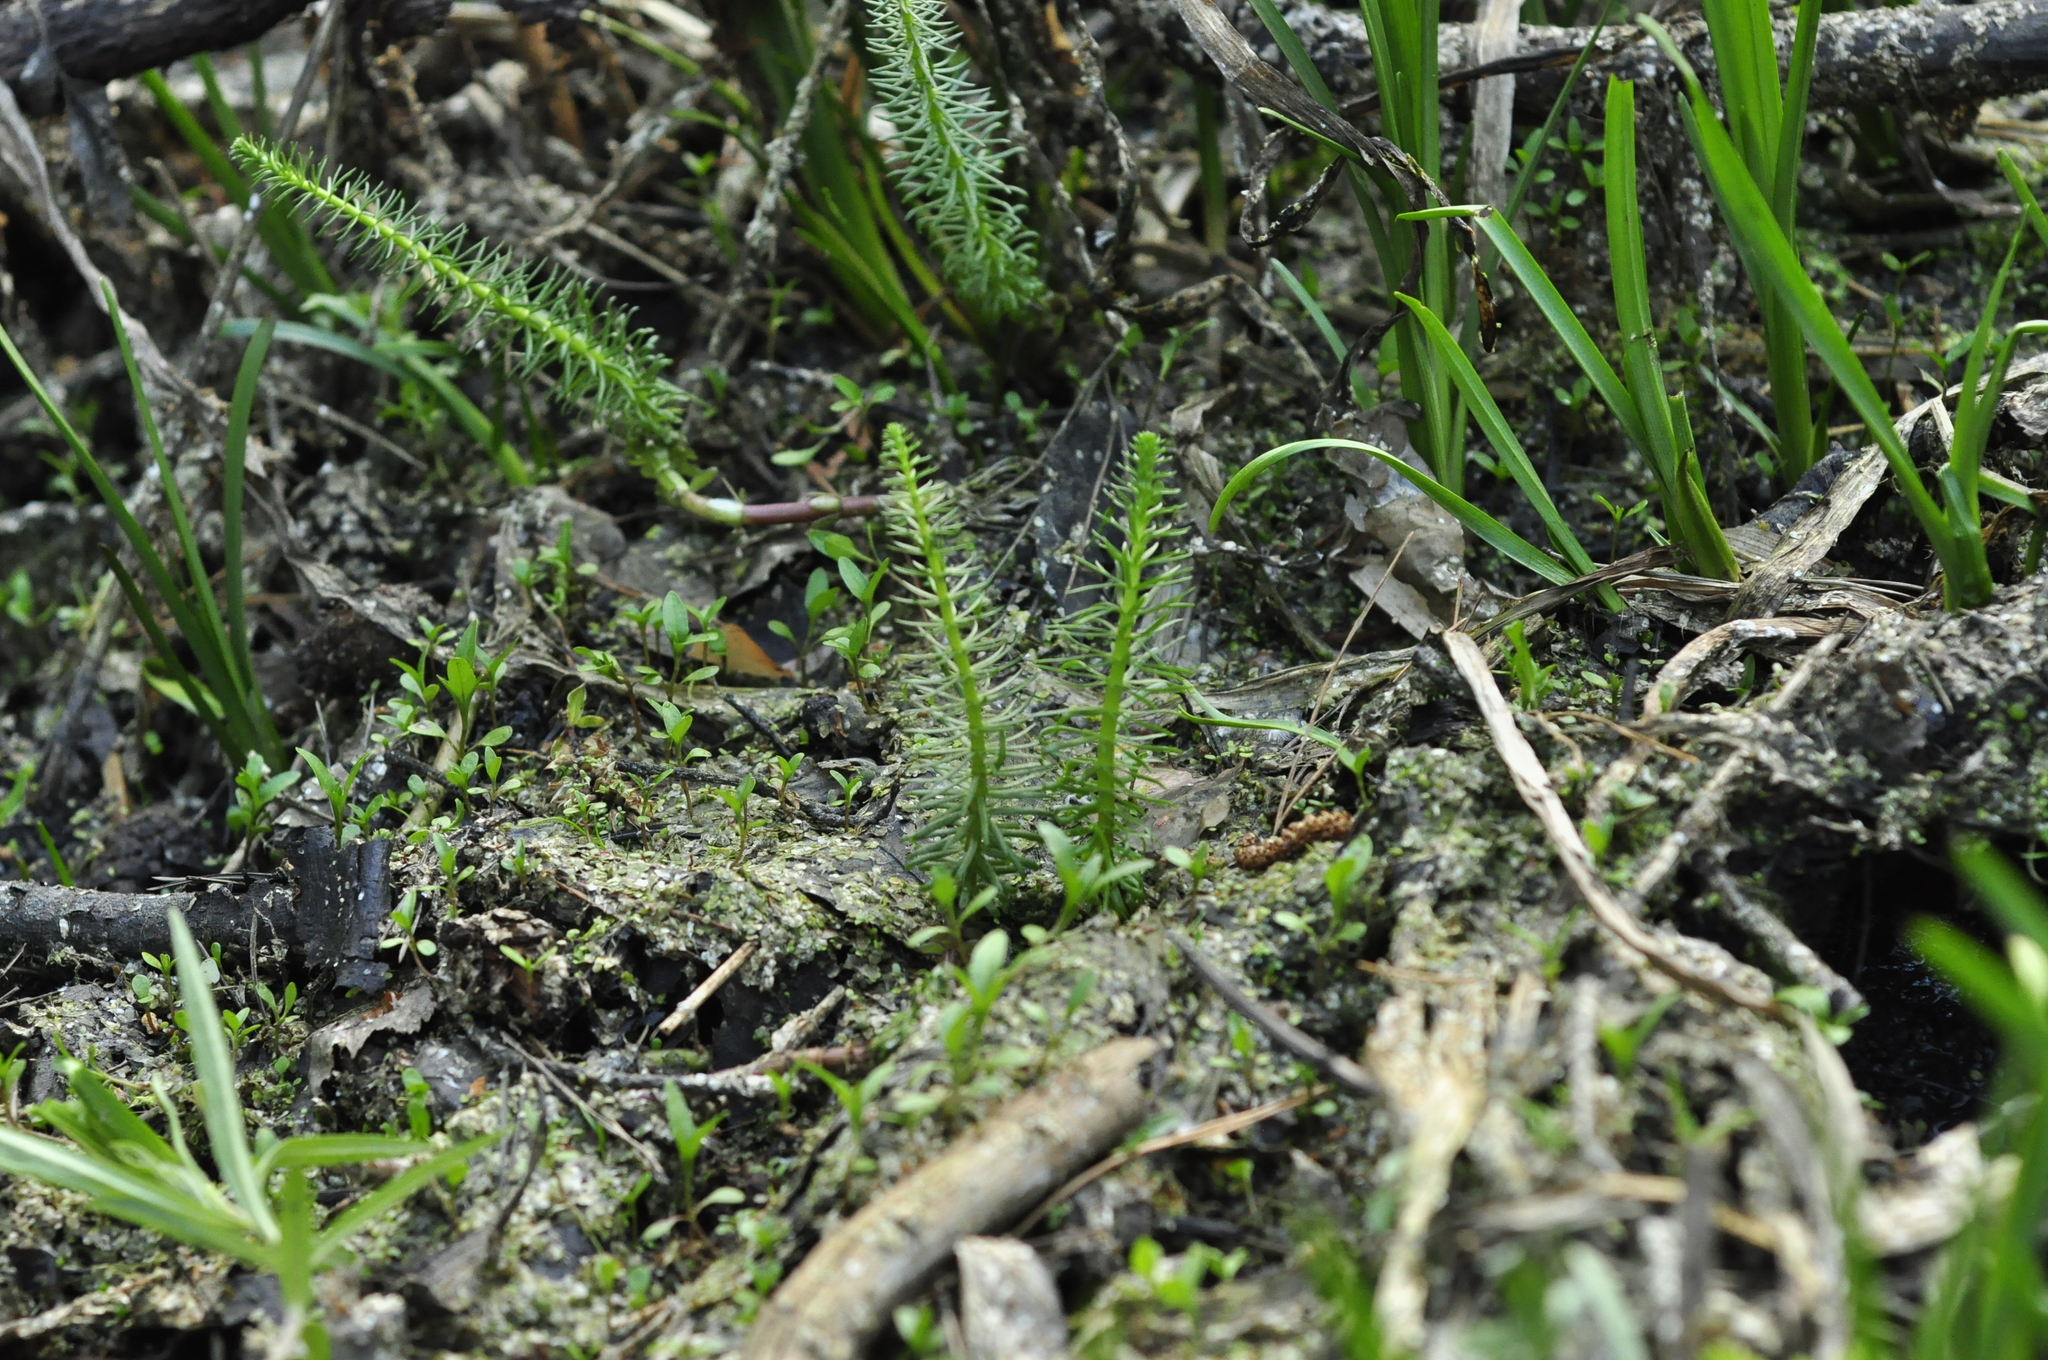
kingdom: Plantae
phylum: Tracheophyta
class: Lycopodiopsida
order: Lycopodiales
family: Lycopodiaceae
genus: Spinulum
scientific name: Spinulum annotinum
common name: Interrupted club-moss
